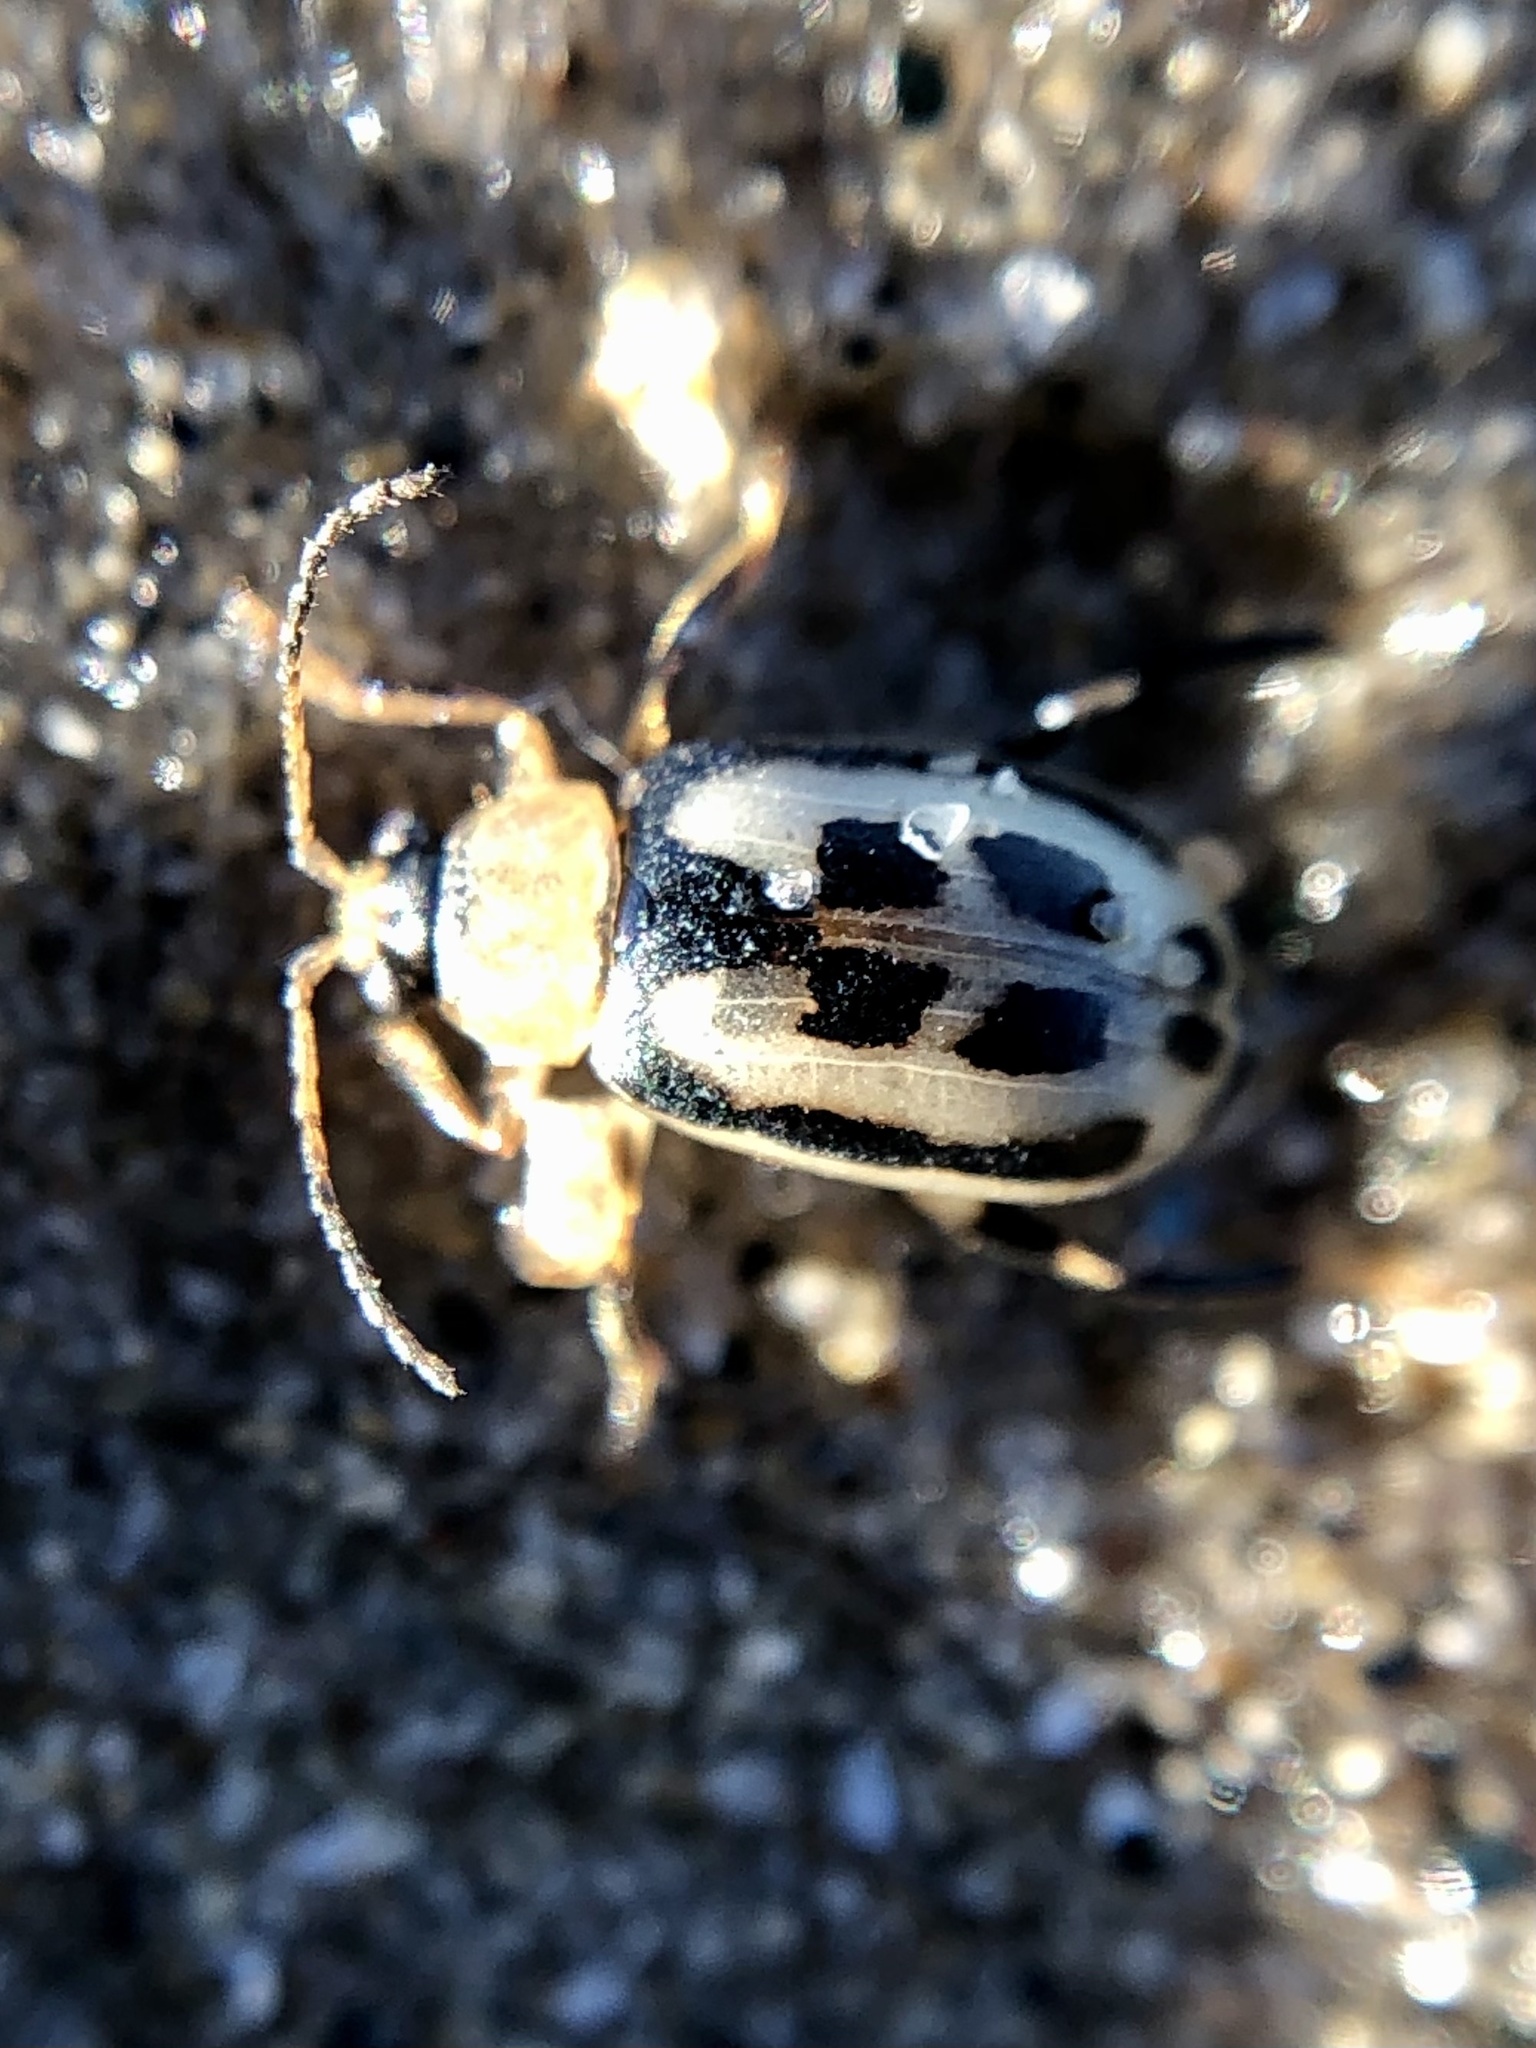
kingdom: Animalia
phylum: Arthropoda
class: Insecta
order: Coleoptera
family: Chrysomelidae
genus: Cerotoma
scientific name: Cerotoma trifurcata
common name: Bean leaf beetle
